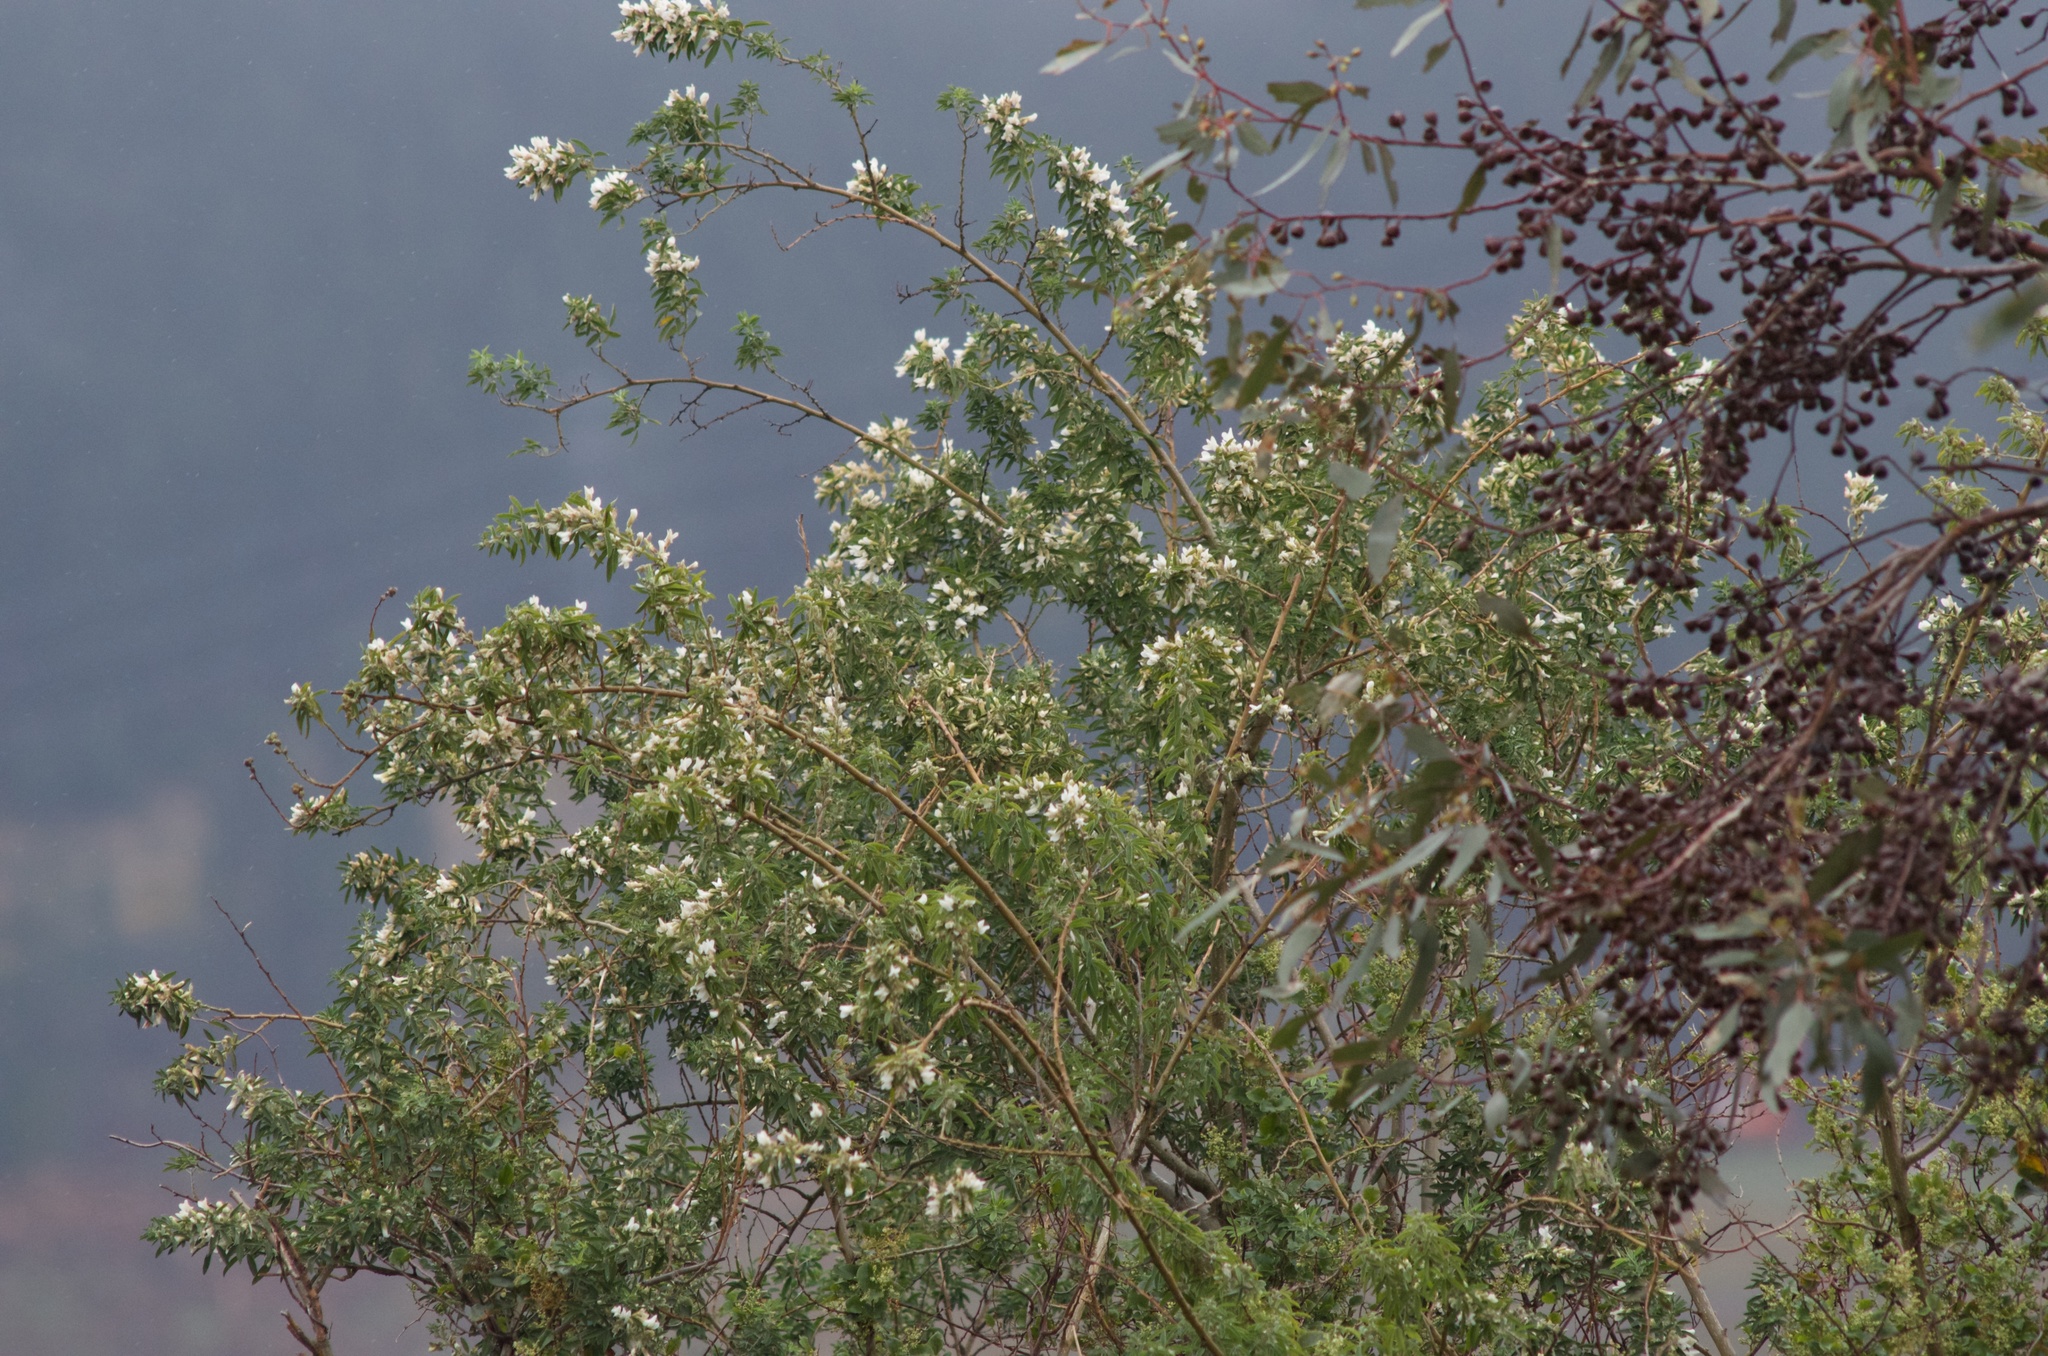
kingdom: Plantae
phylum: Tracheophyta
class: Magnoliopsida
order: Fabales
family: Fabaceae
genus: Chamaecytisus
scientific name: Chamaecytisus prolifer
